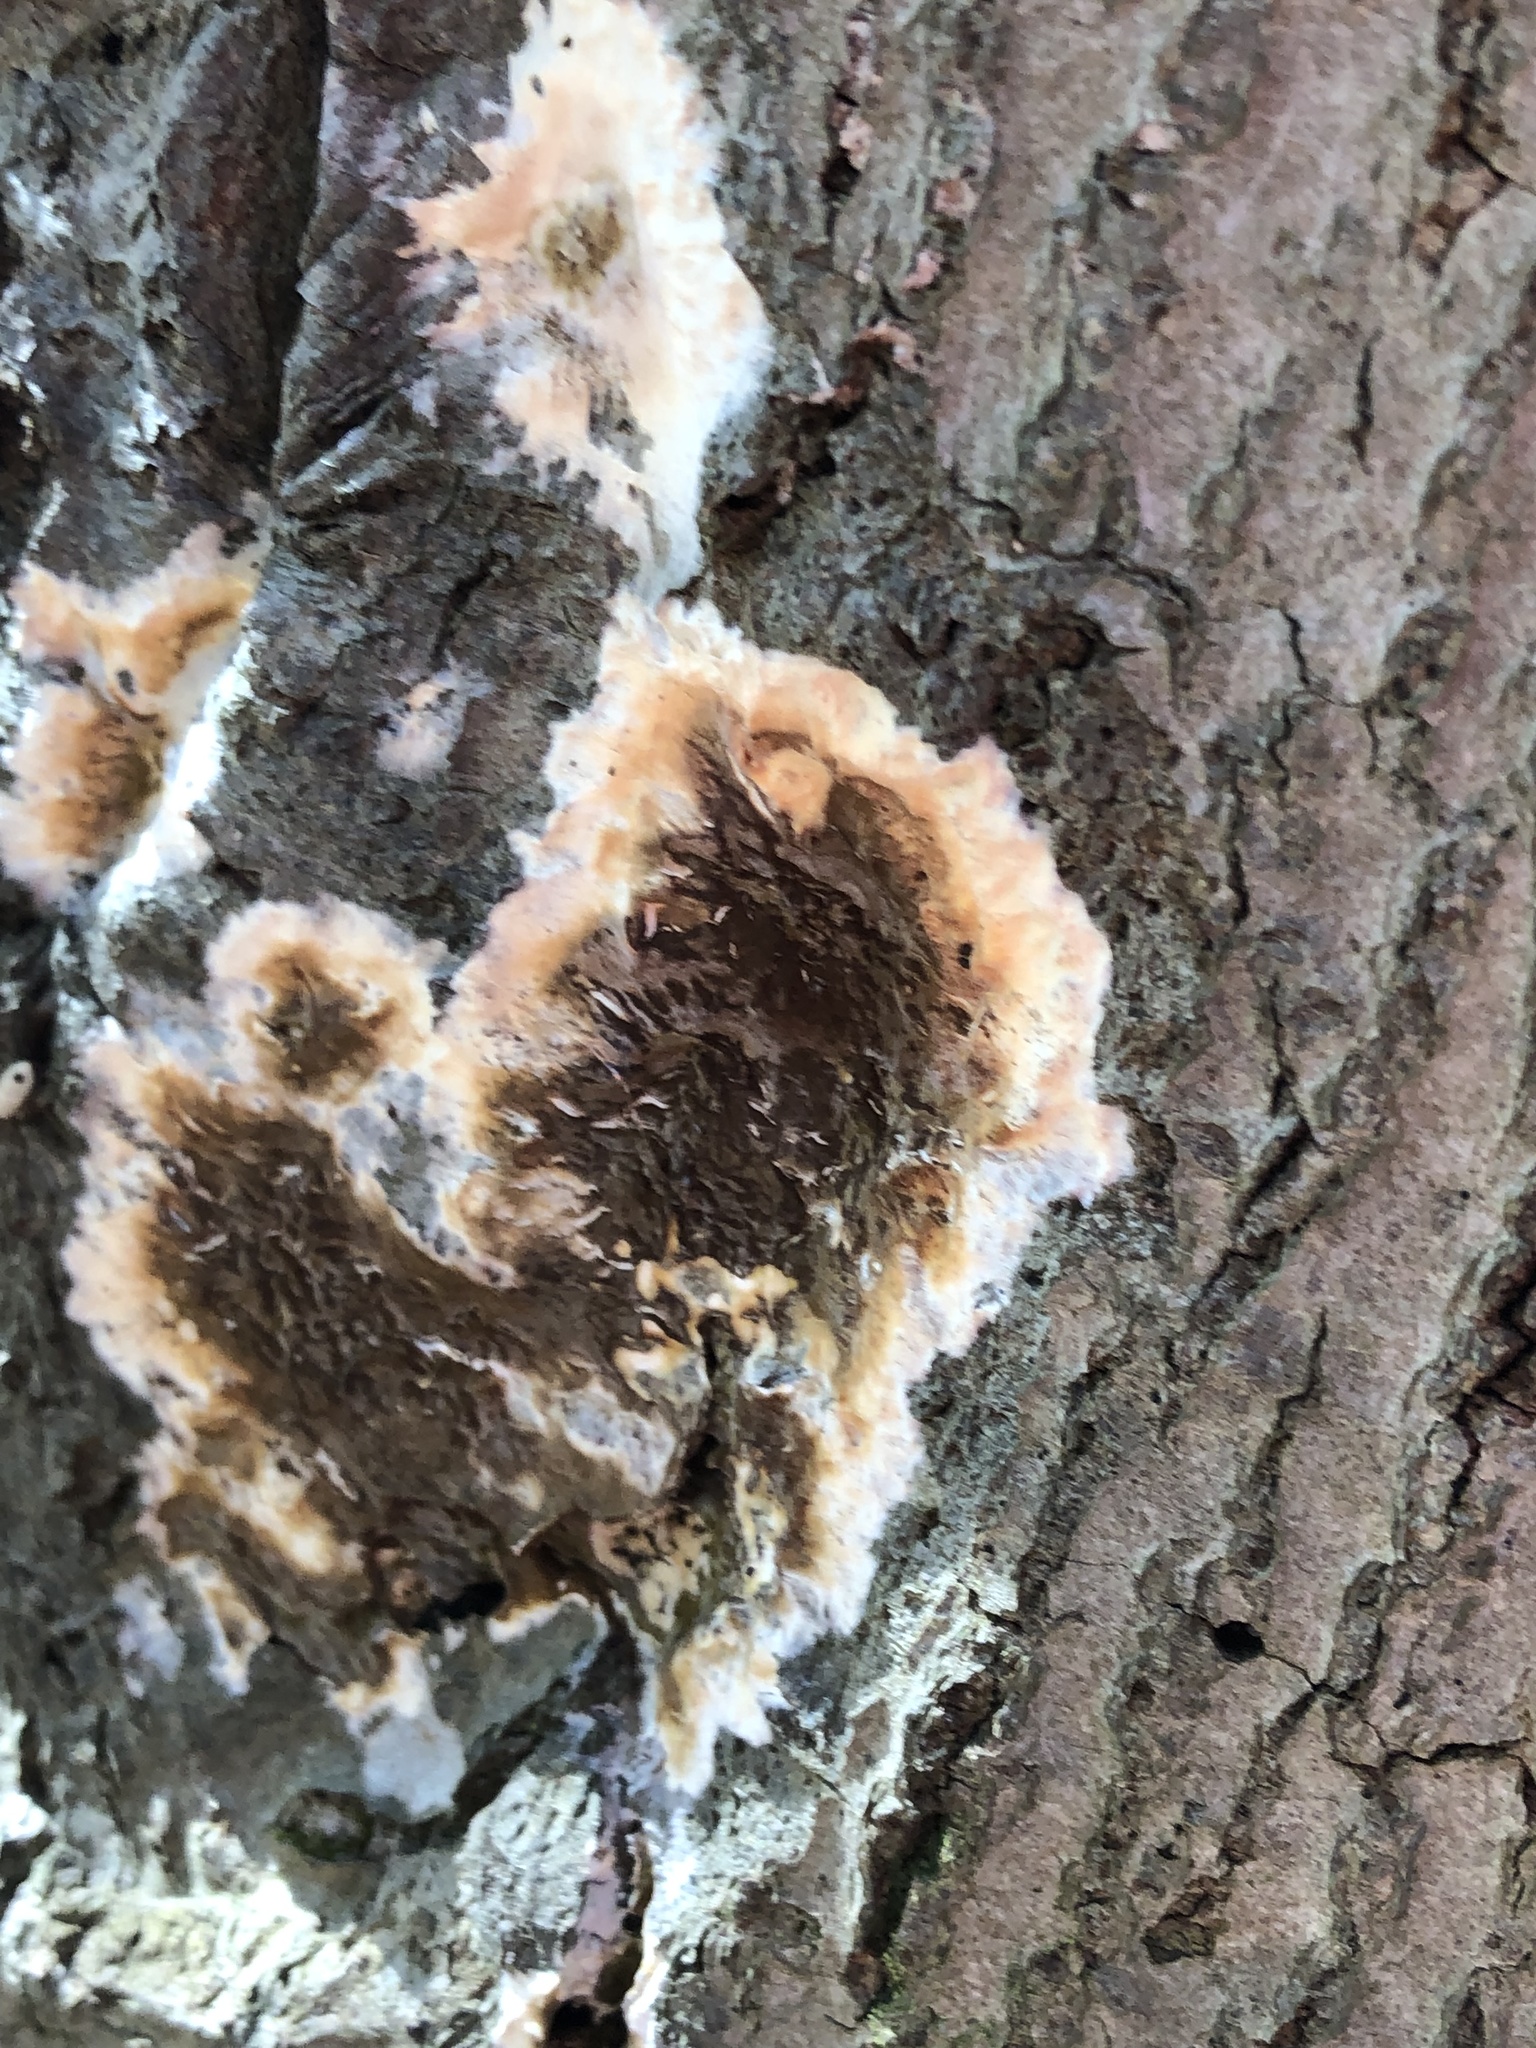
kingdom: Fungi
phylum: Basidiomycota
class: Agaricomycetes
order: Russulales
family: Peniophoraceae
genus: Peniophora
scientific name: Peniophora albobadia
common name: Giraffe spots
